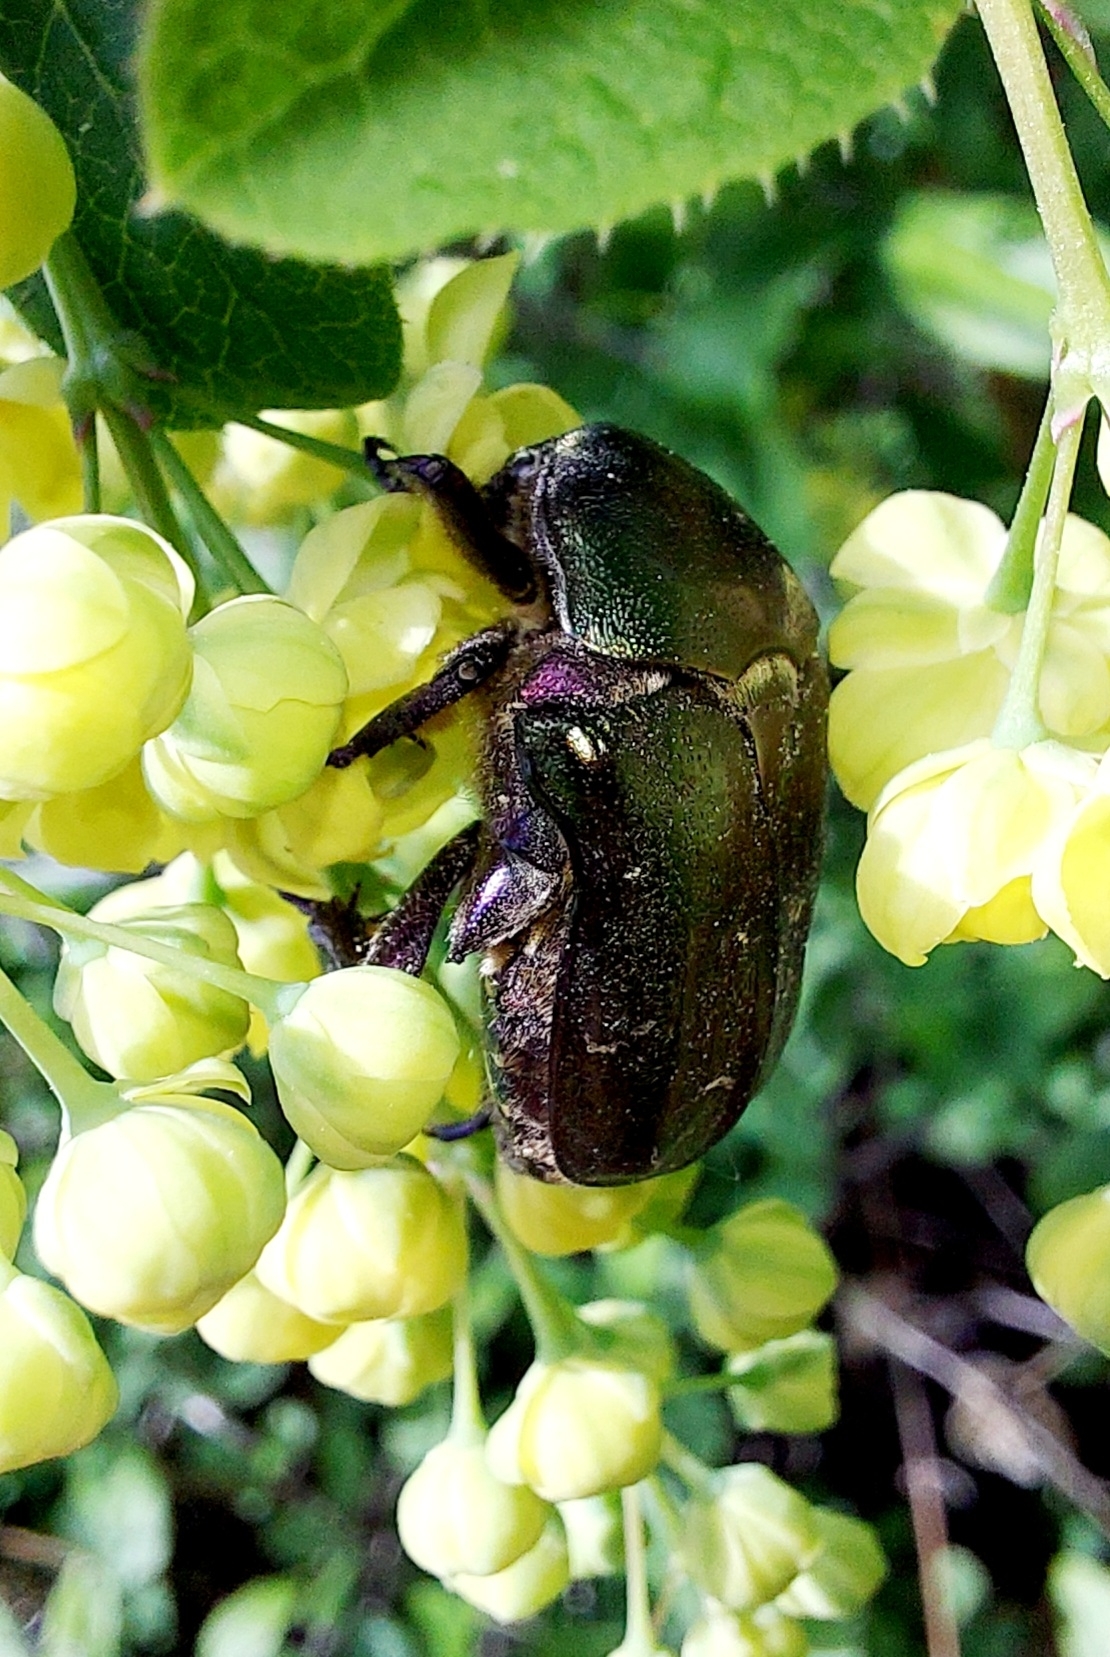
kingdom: Animalia
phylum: Arthropoda
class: Insecta
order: Coleoptera
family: Scarabaeidae
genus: Protaetia
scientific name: Protaetia cuprea
